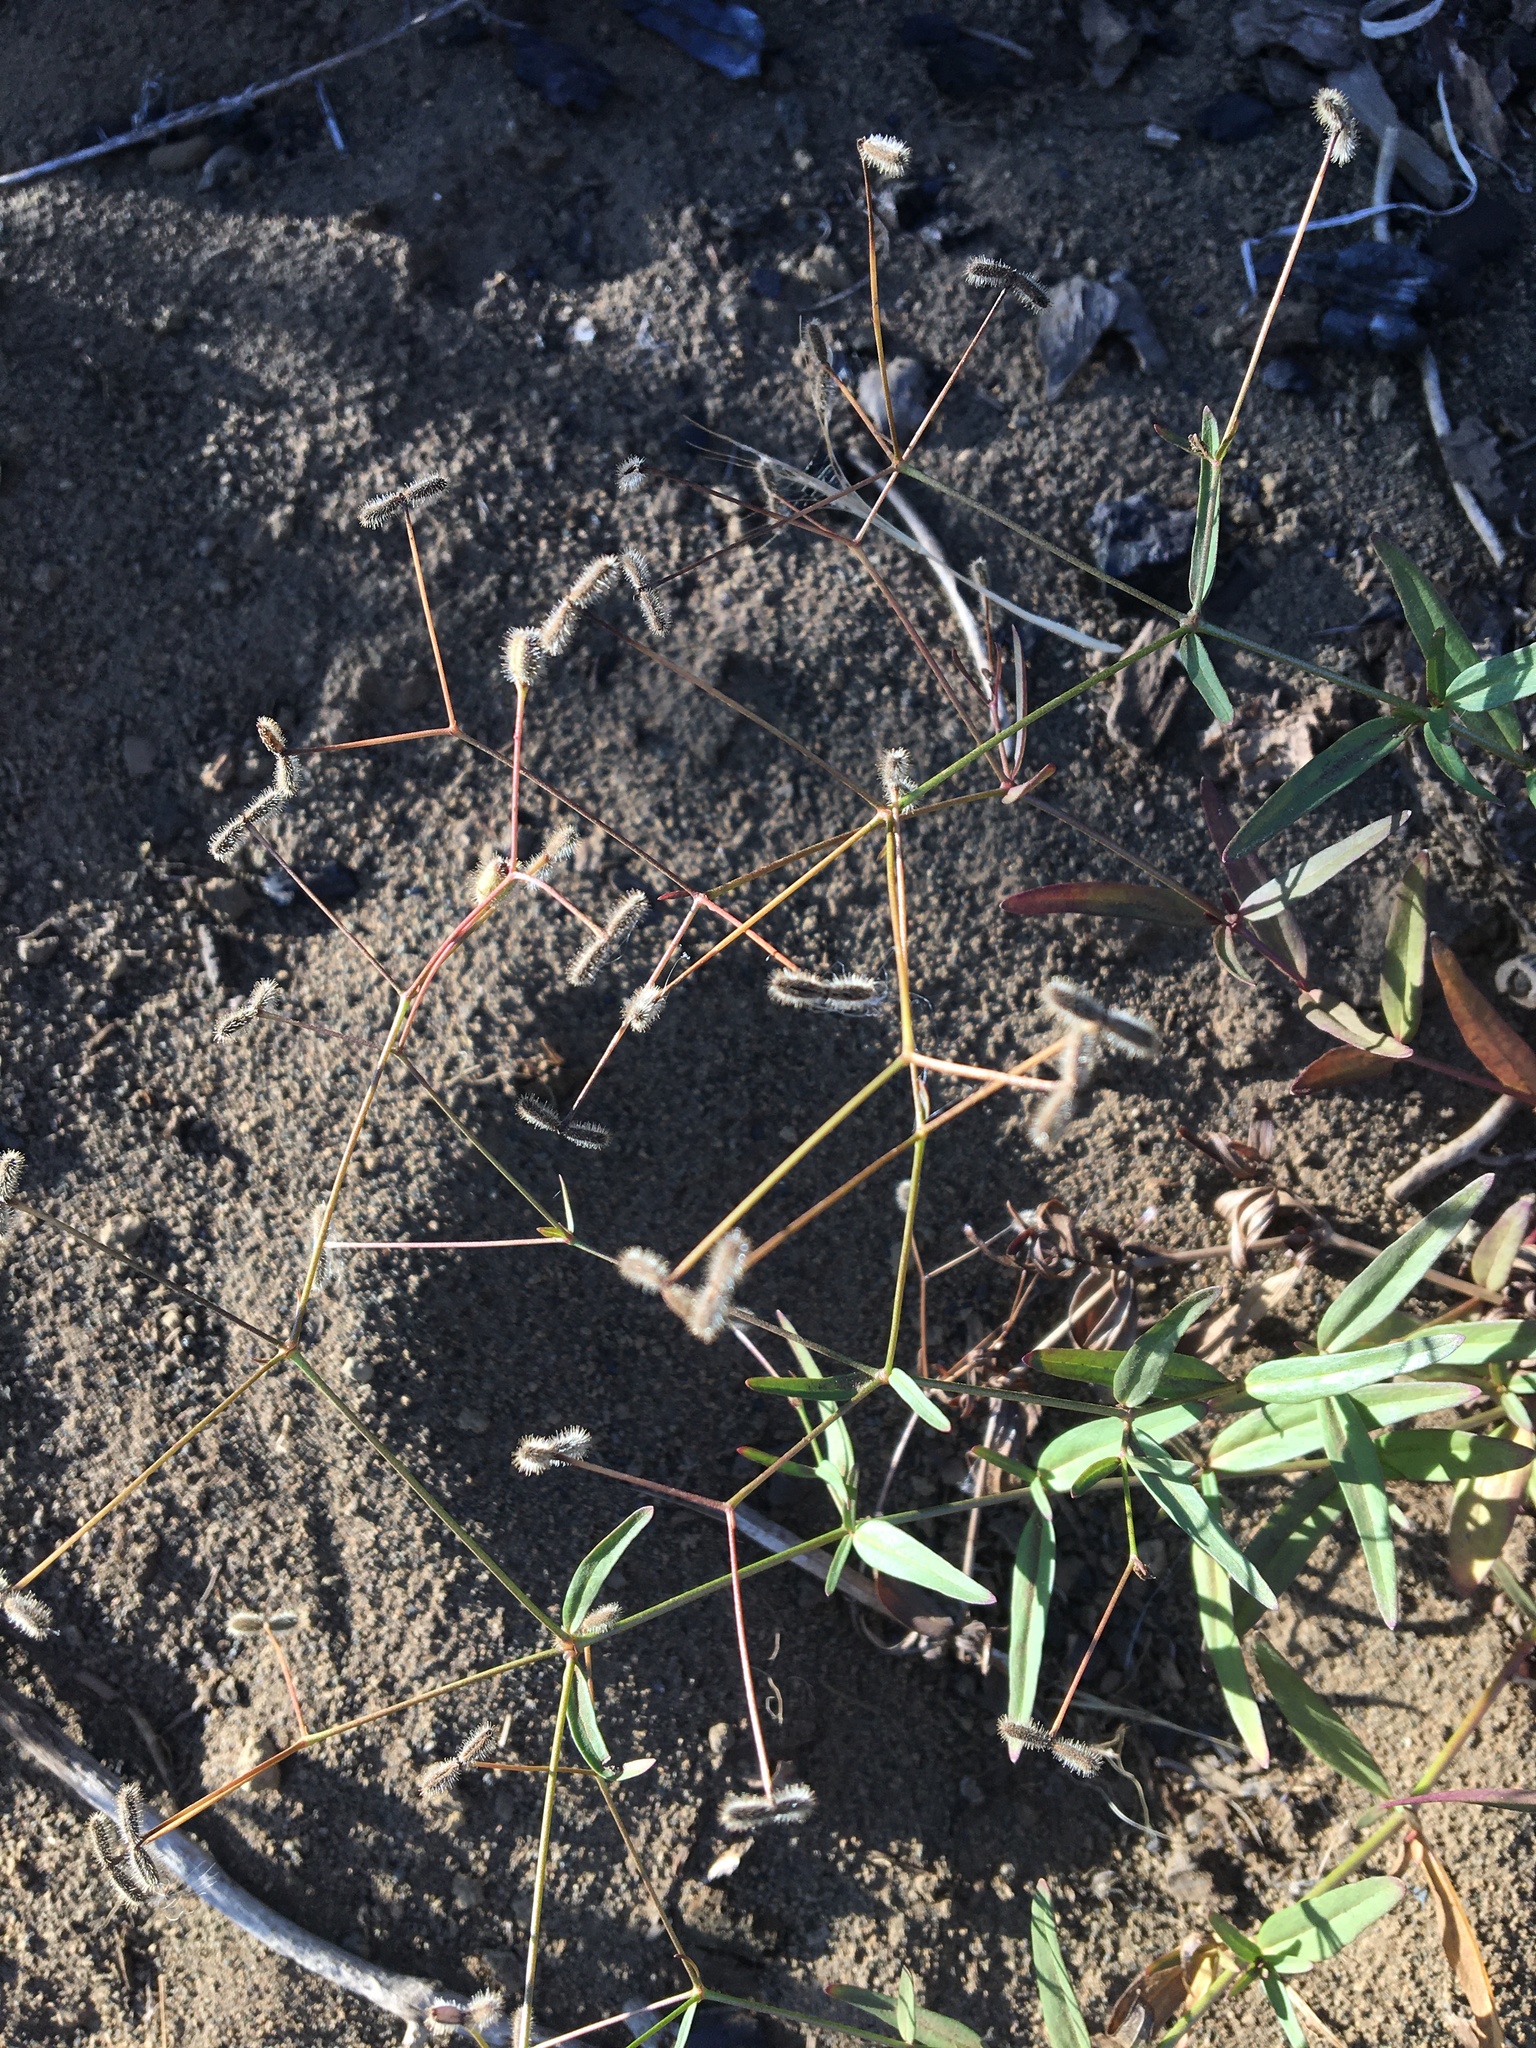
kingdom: Plantae
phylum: Tracheophyta
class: Magnoliopsida
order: Gentianales
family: Rubiaceae
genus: Kelloggia
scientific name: Kelloggia galioides
